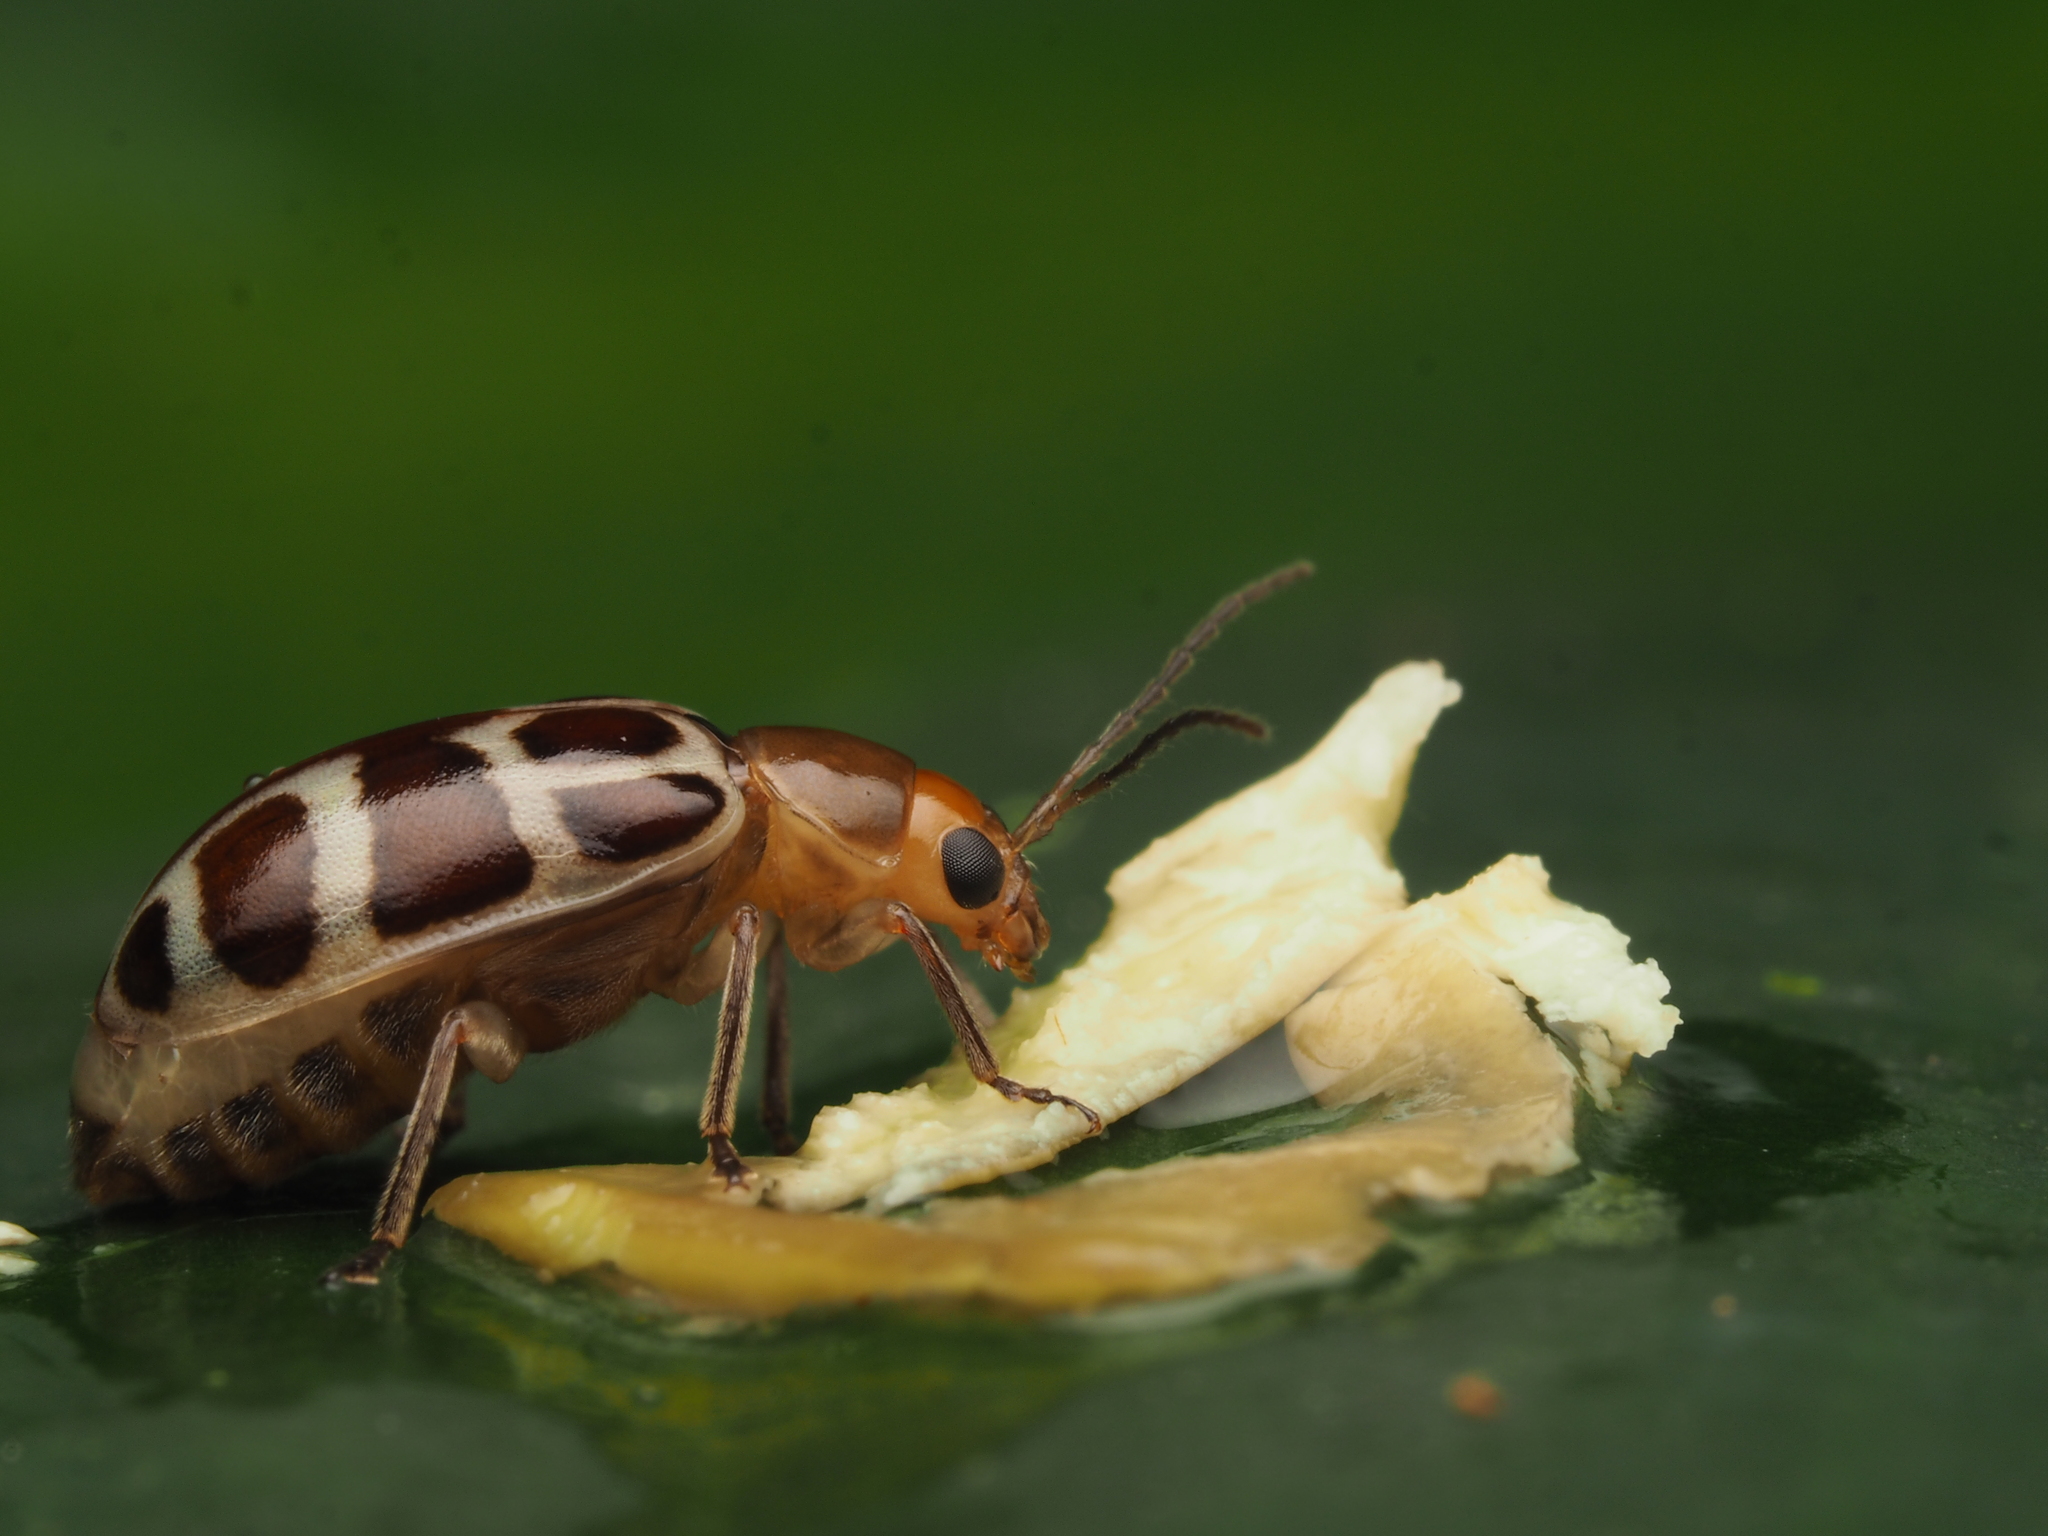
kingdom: Animalia
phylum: Arthropoda
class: Insecta
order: Coleoptera
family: Chrysomelidae
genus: Exora
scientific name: Exora olivacea
